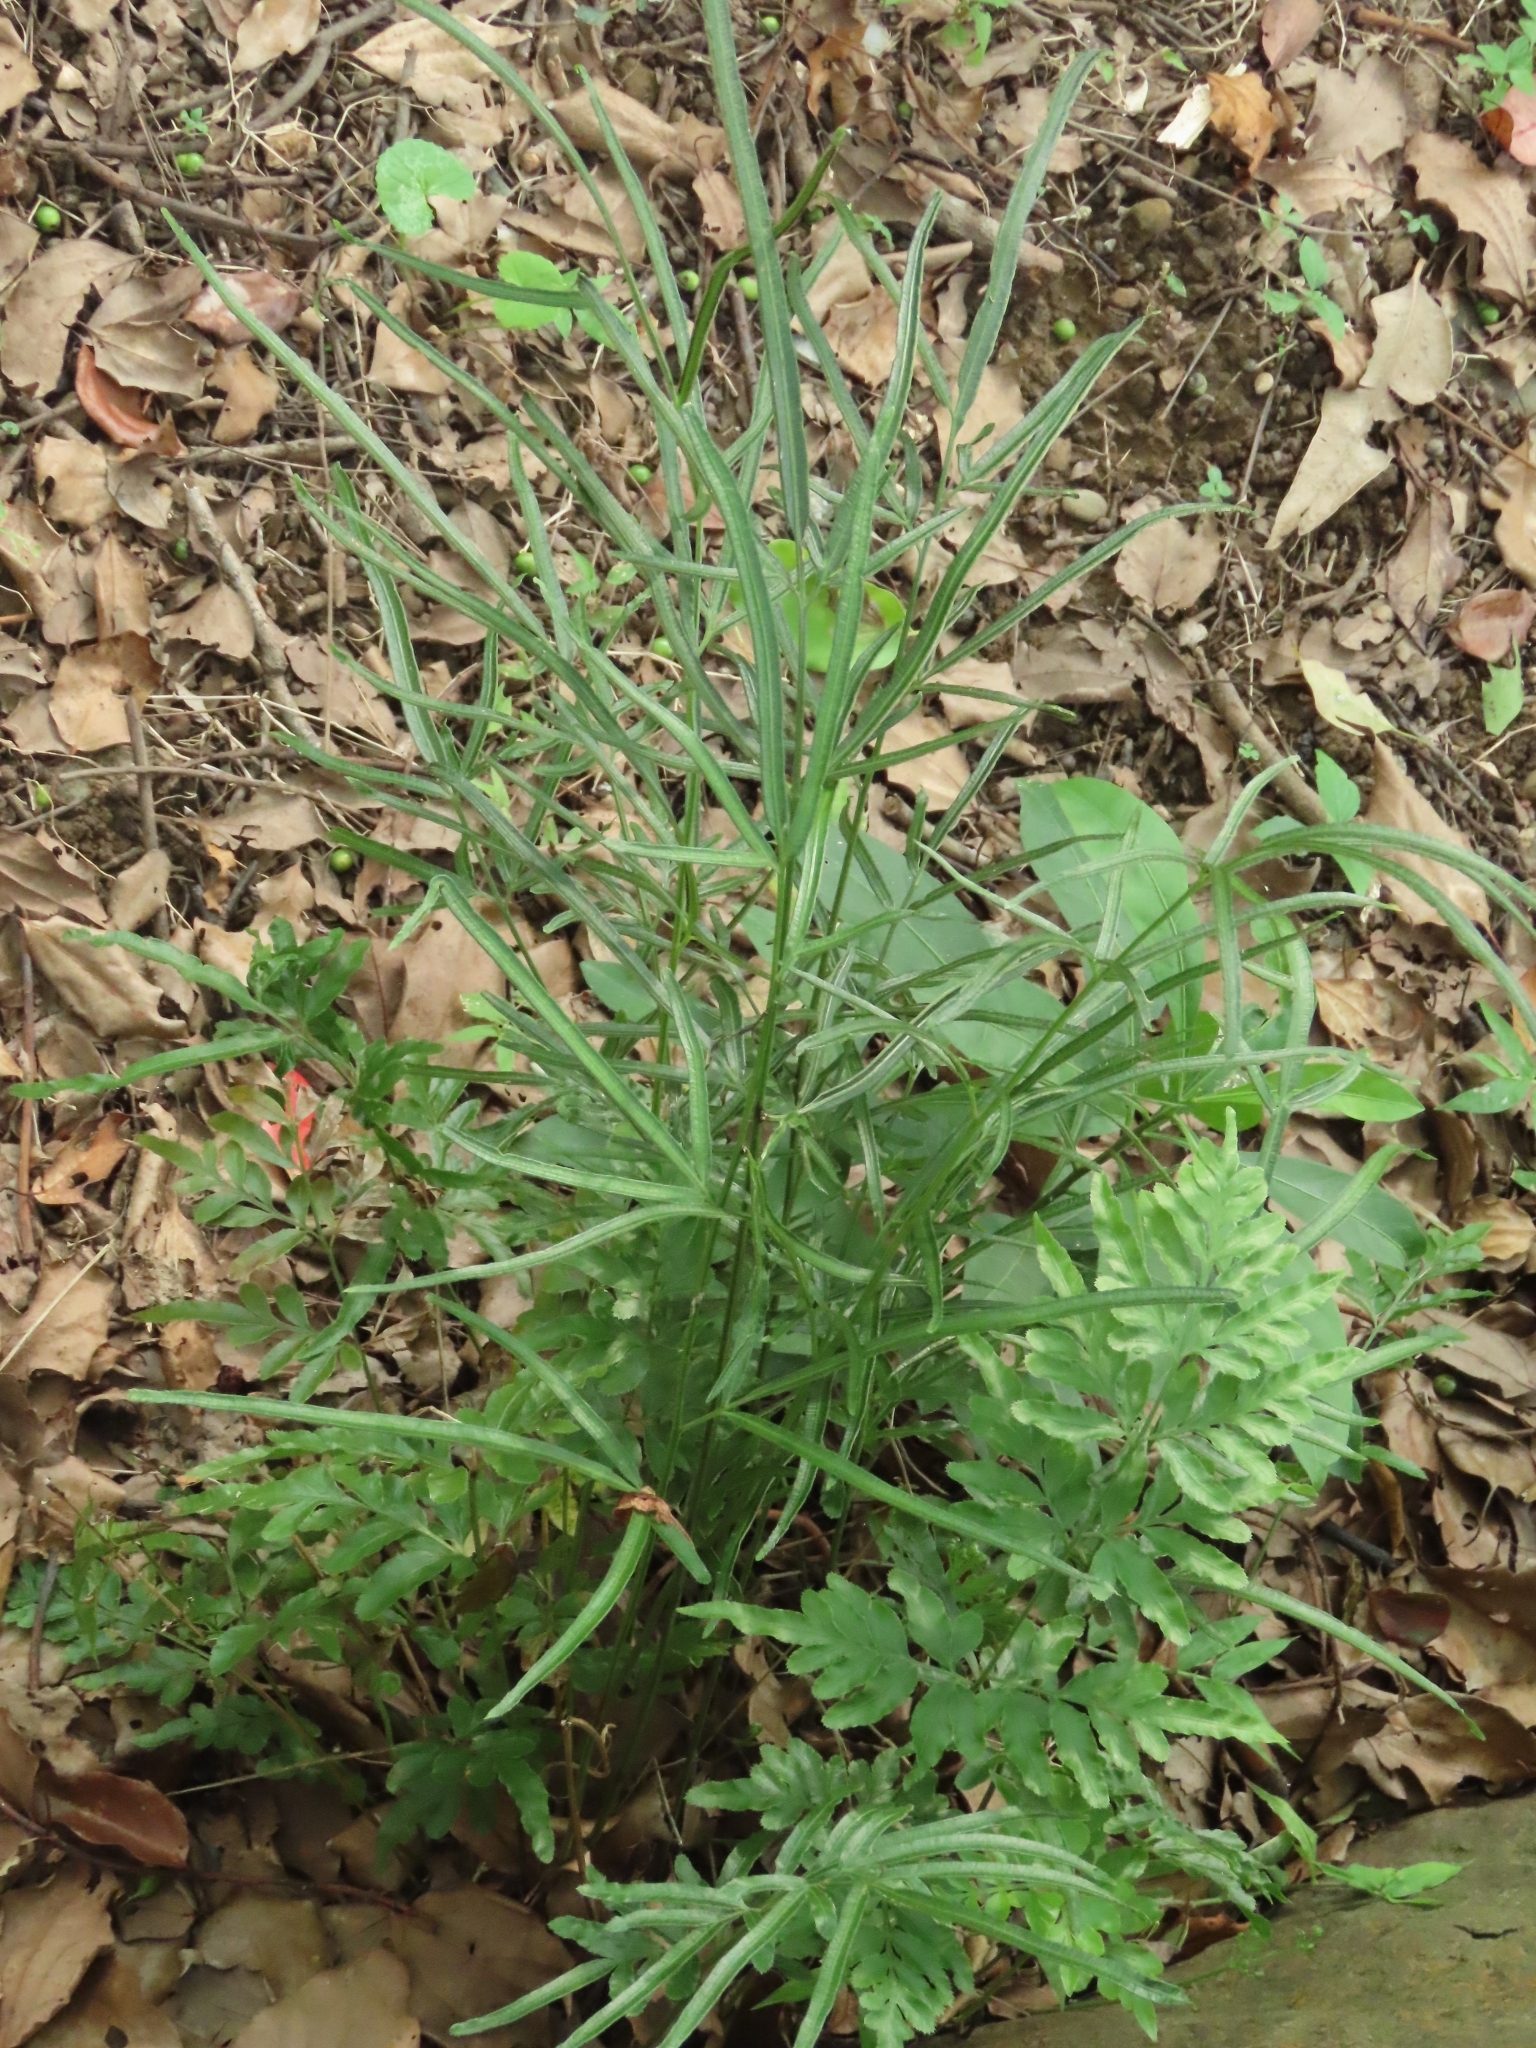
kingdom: Plantae
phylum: Tracheophyta
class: Polypodiopsida
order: Polypodiales
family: Pteridaceae
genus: Pteris
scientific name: Pteris ensiformis
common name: Sword brake
